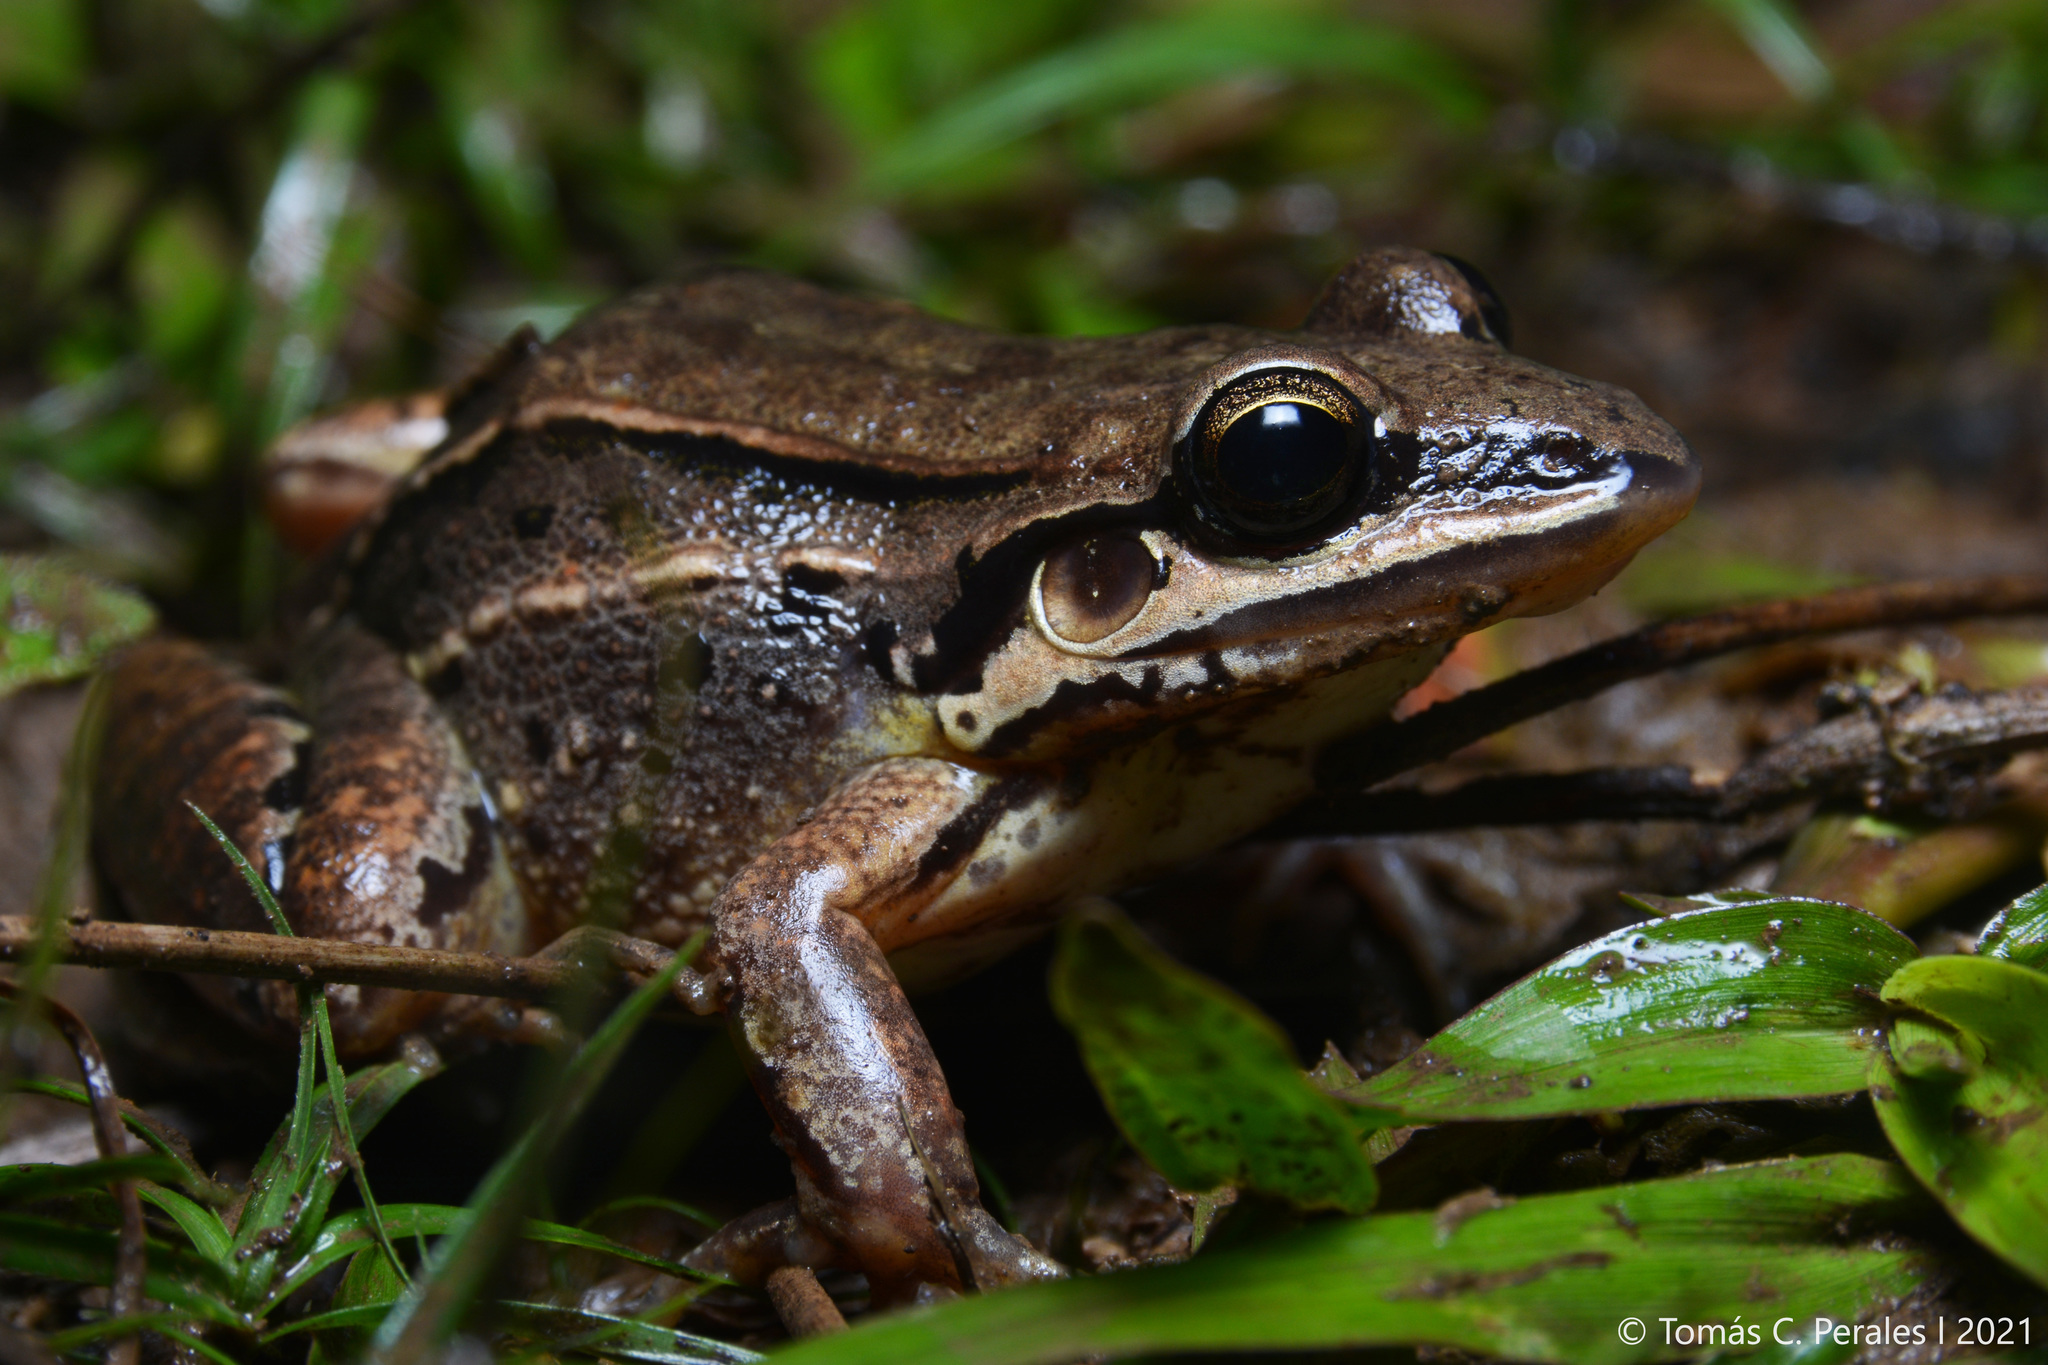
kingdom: Animalia
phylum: Chordata
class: Amphibia
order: Anura
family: Leptodactylidae
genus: Leptodactylus
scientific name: Leptodactylus elenae
